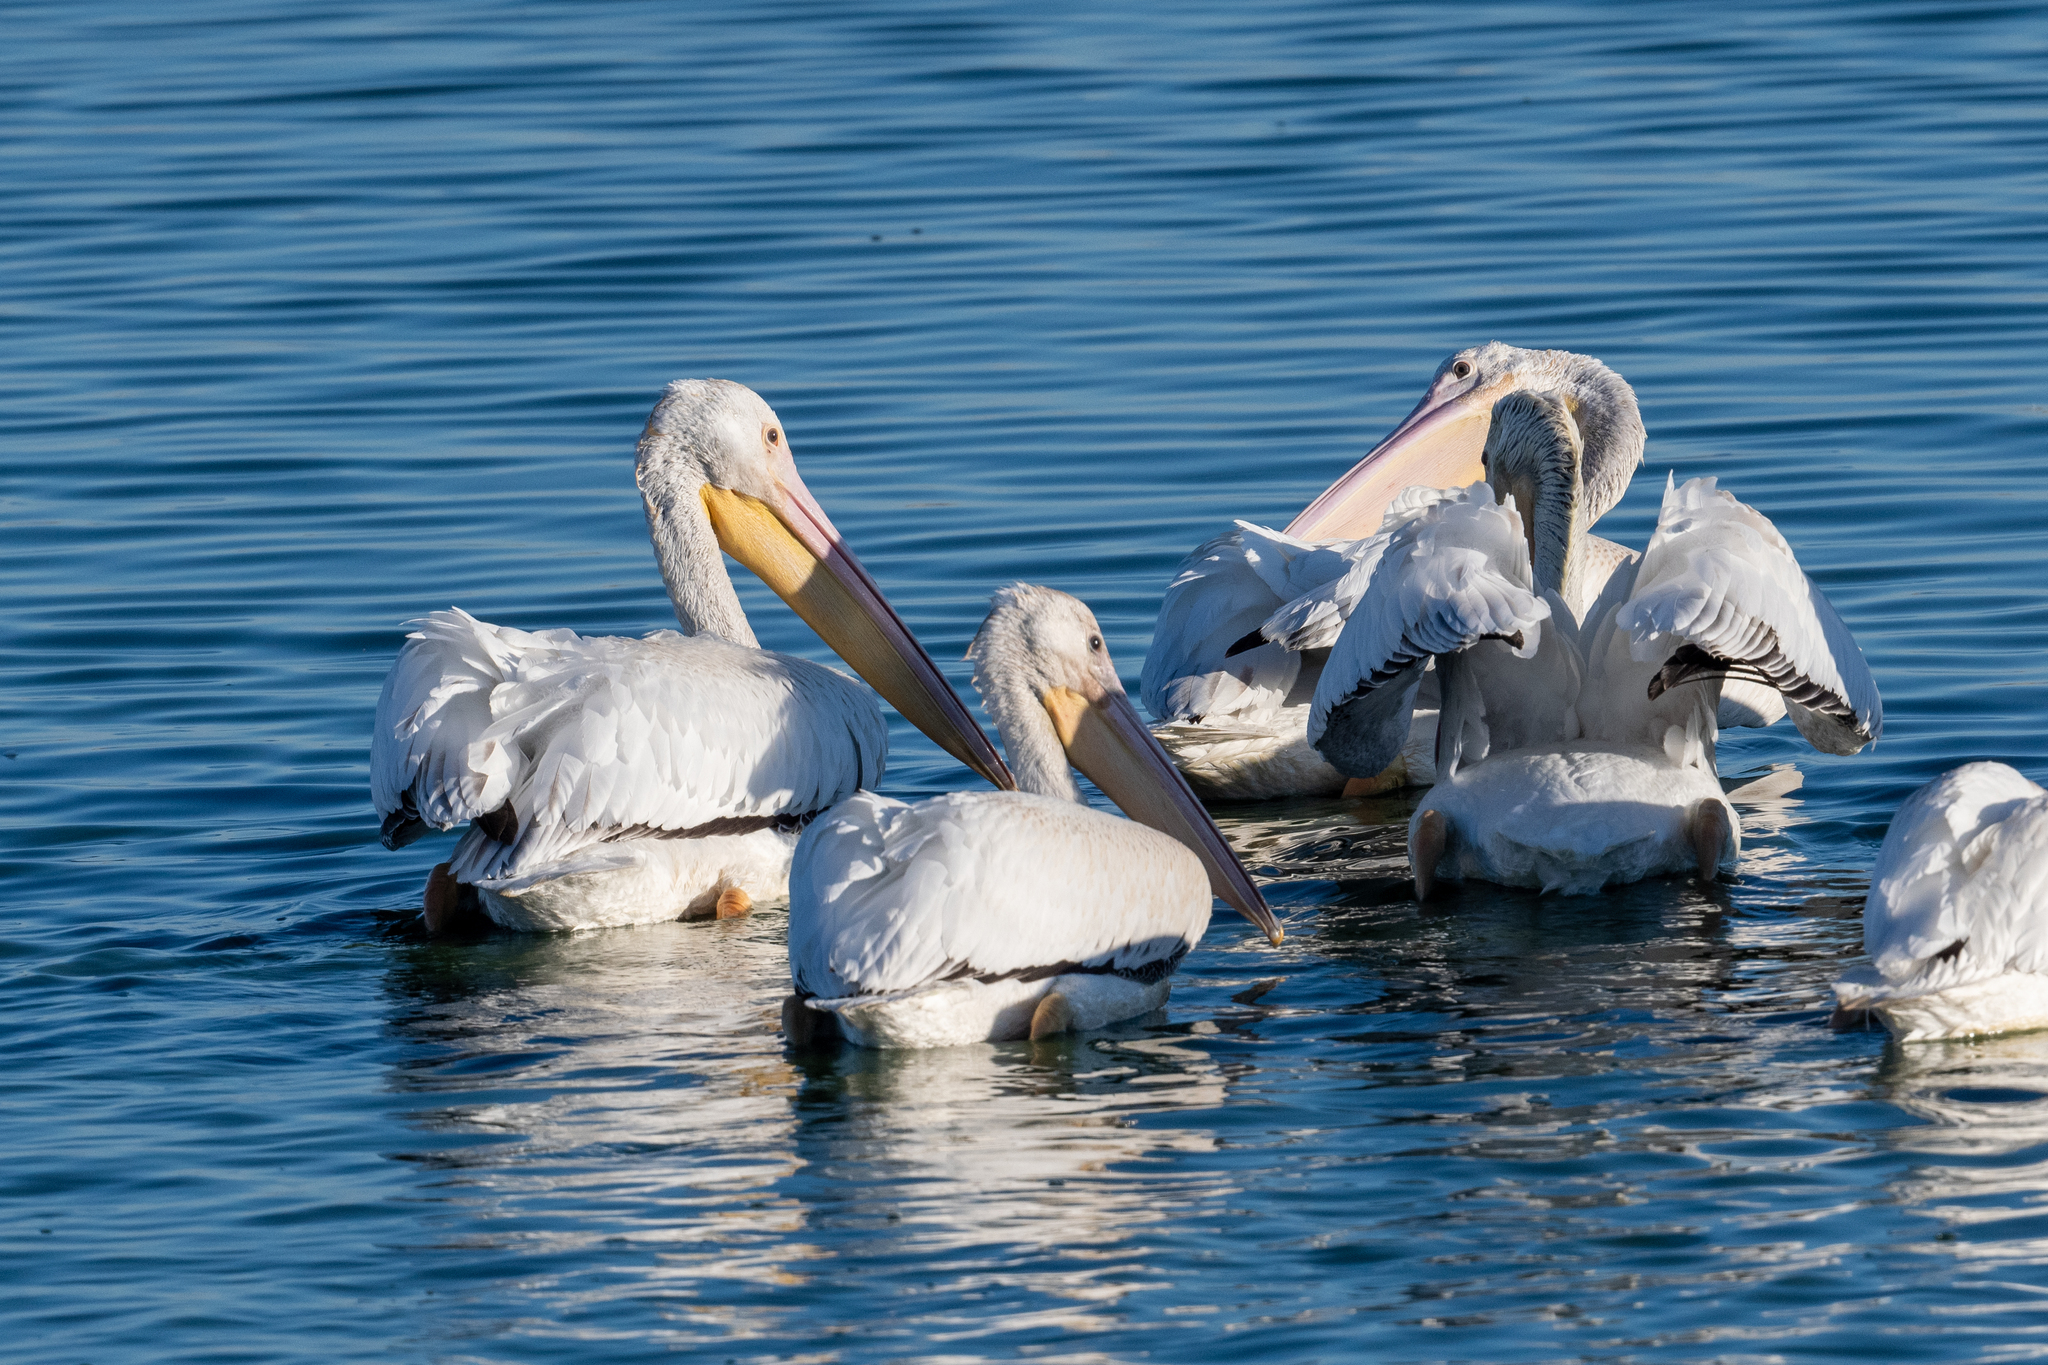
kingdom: Animalia
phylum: Chordata
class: Aves
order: Pelecaniformes
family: Pelecanidae
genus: Pelecanus
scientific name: Pelecanus erythrorhynchos
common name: American white pelican
